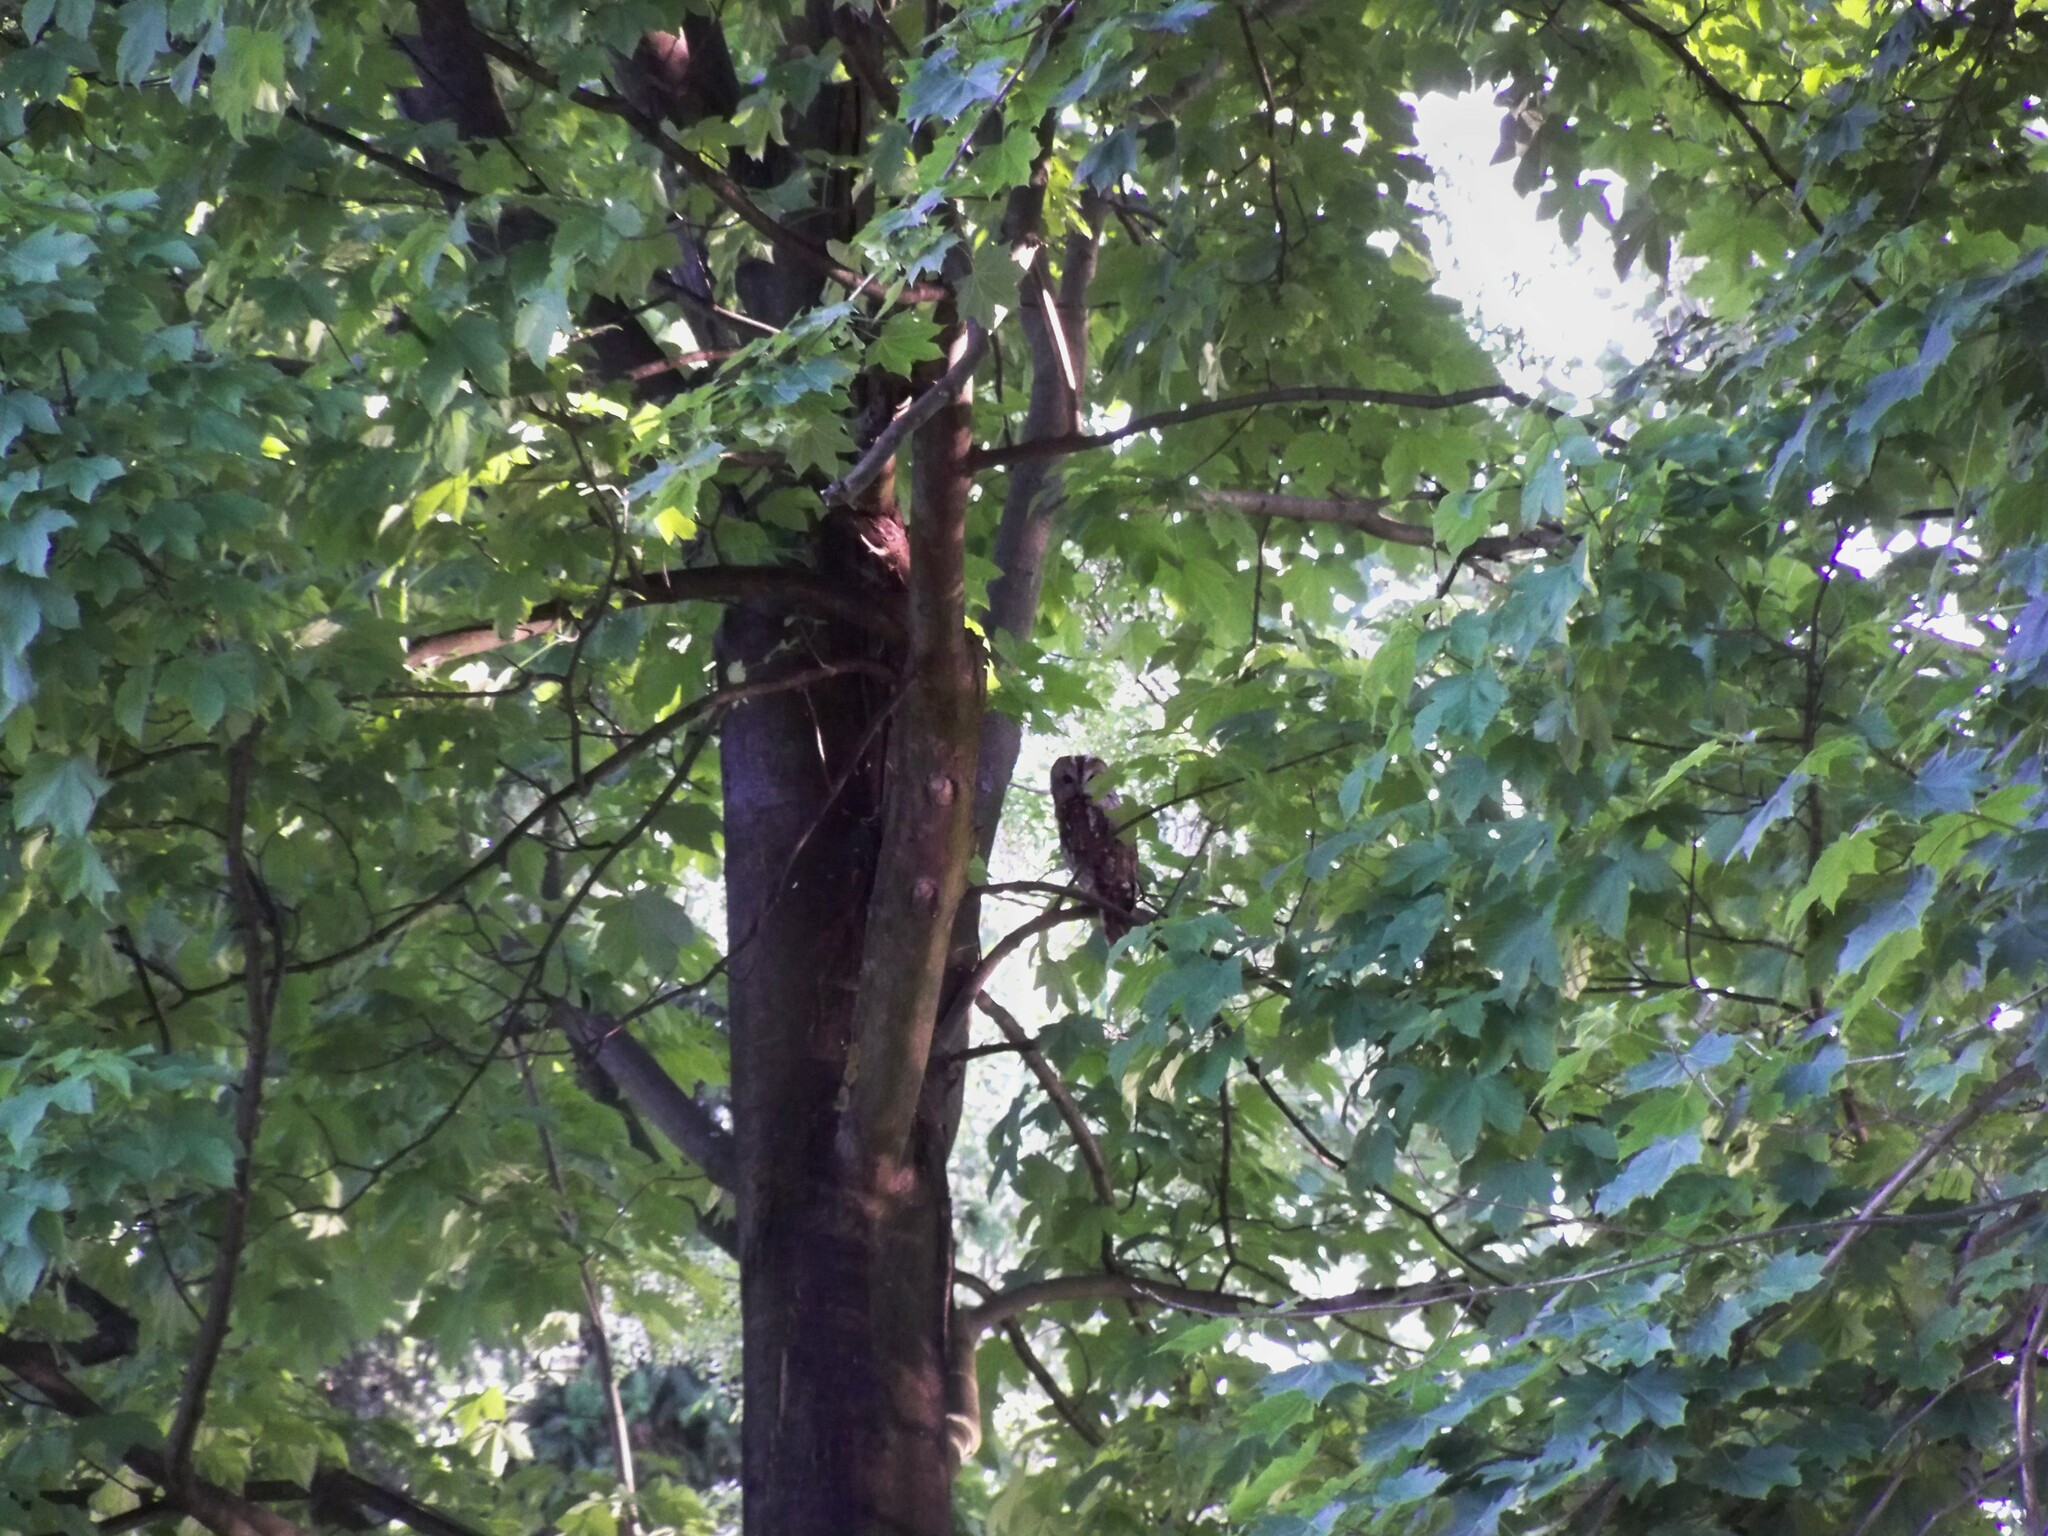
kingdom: Animalia
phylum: Chordata
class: Aves
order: Strigiformes
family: Strigidae
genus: Strix
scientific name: Strix aluco
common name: Tawny owl
